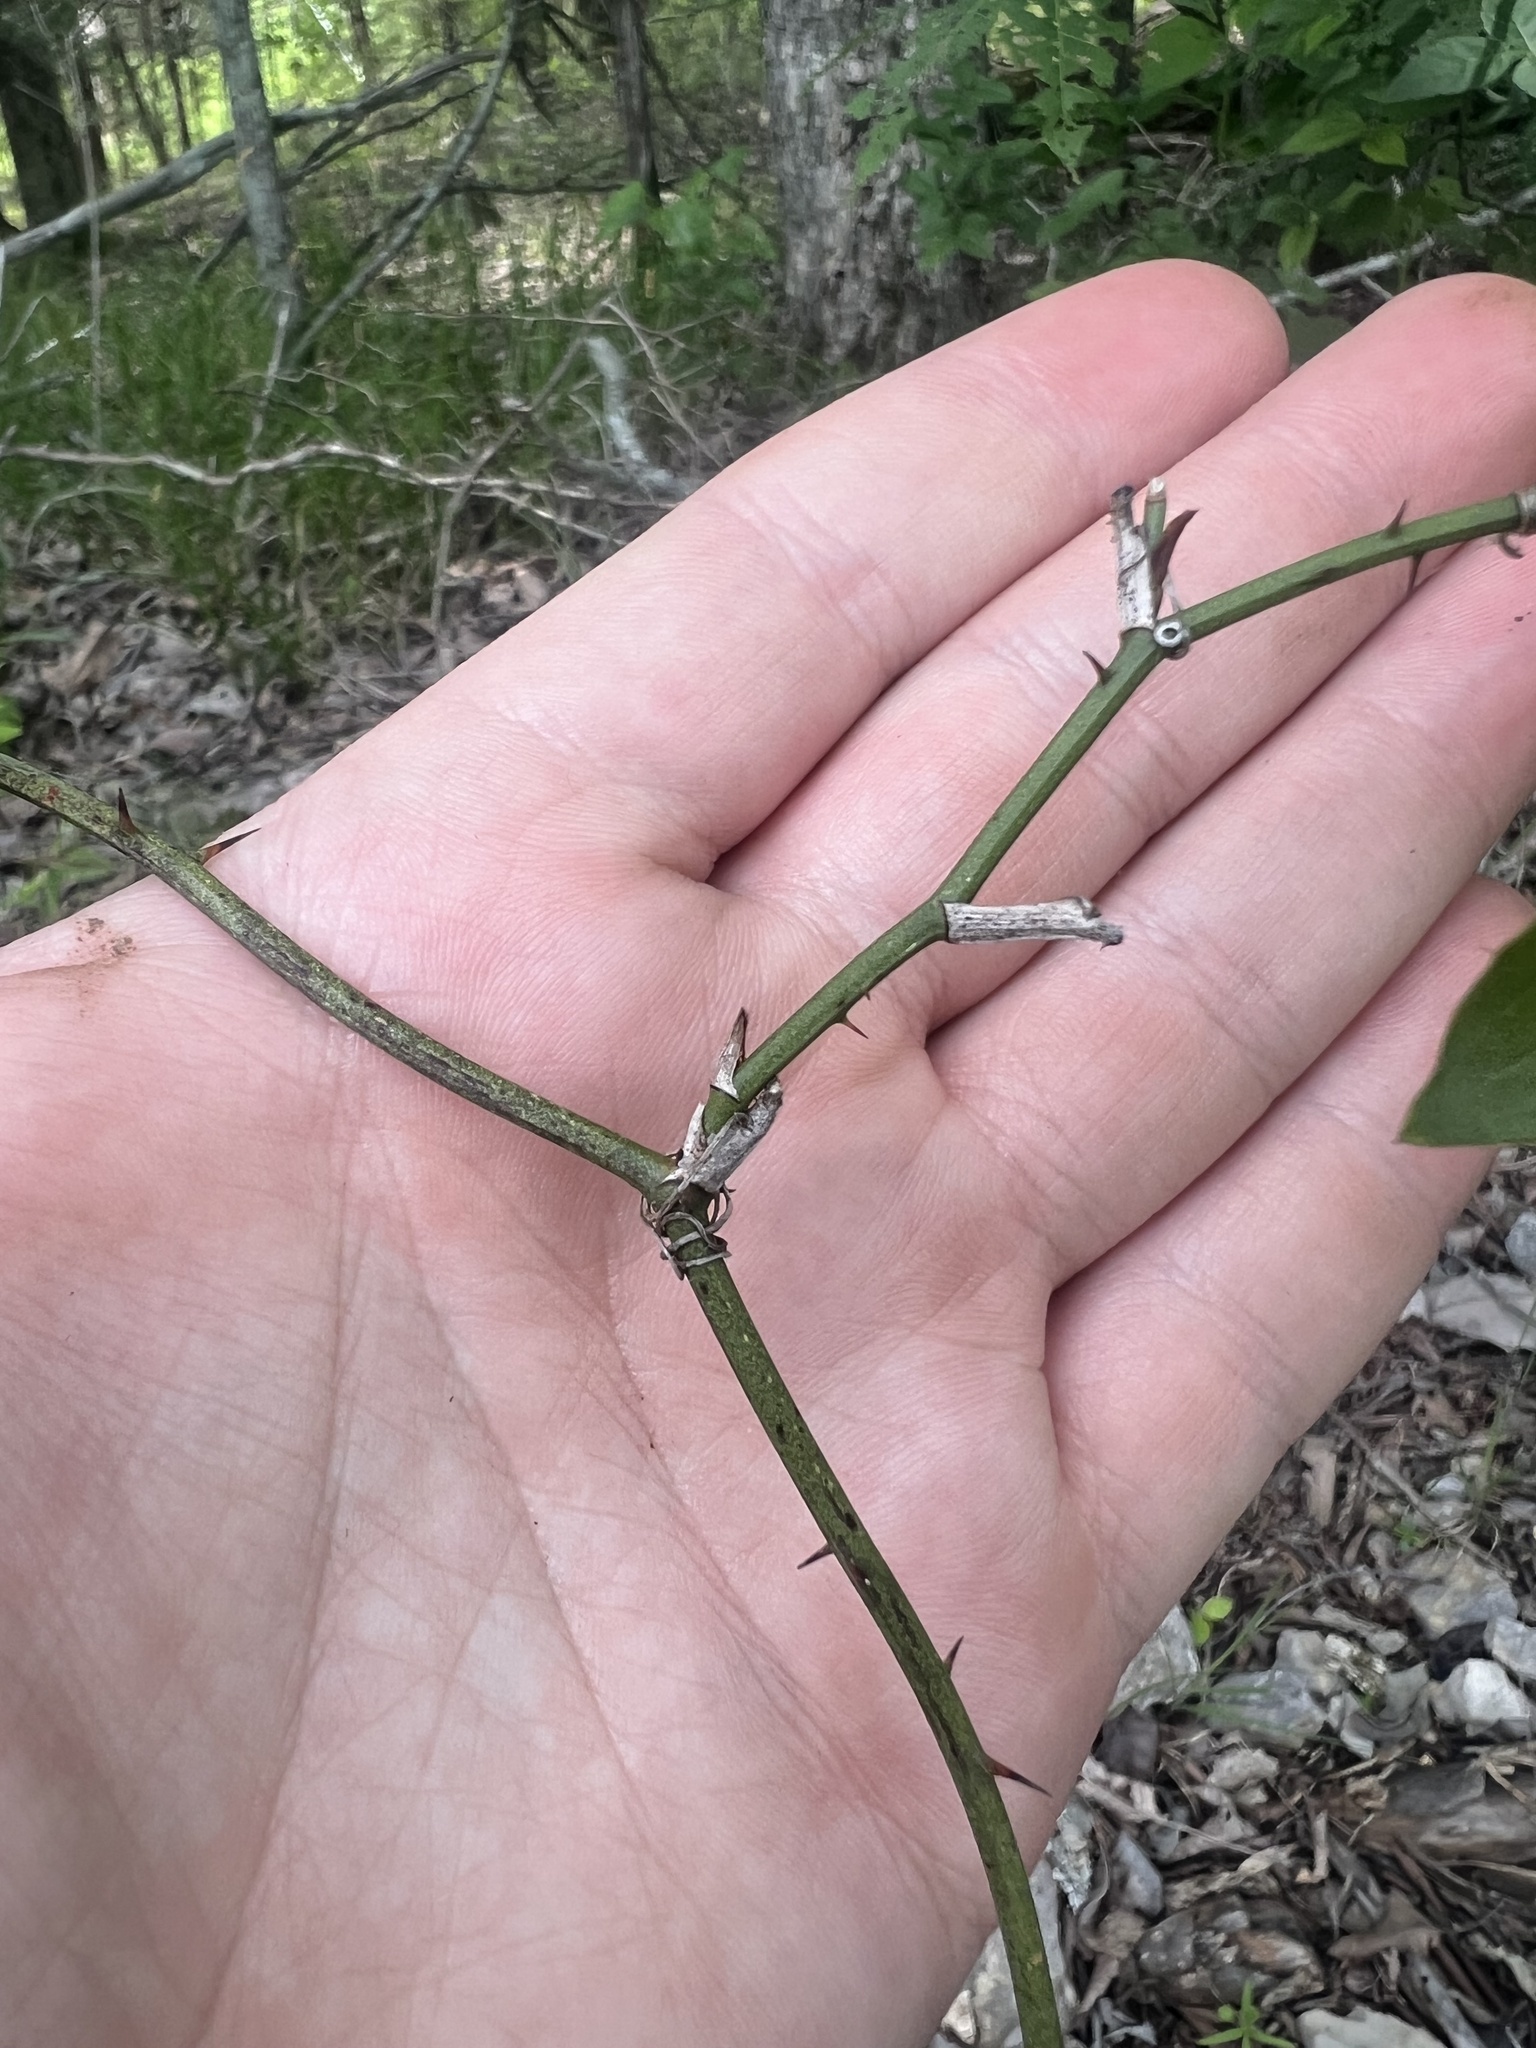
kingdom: Plantae
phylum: Tracheophyta
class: Liliopsida
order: Liliales
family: Smilacaceae
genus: Smilax
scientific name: Smilax bona-nox
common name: Catbrier
